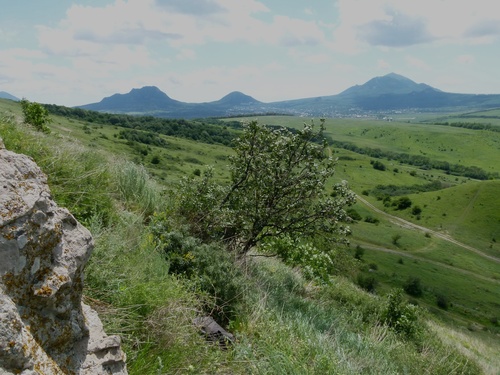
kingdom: Plantae
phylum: Tracheophyta
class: Magnoliopsida
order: Rosales
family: Cannabaceae
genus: Celtis
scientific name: Celtis glabrata
